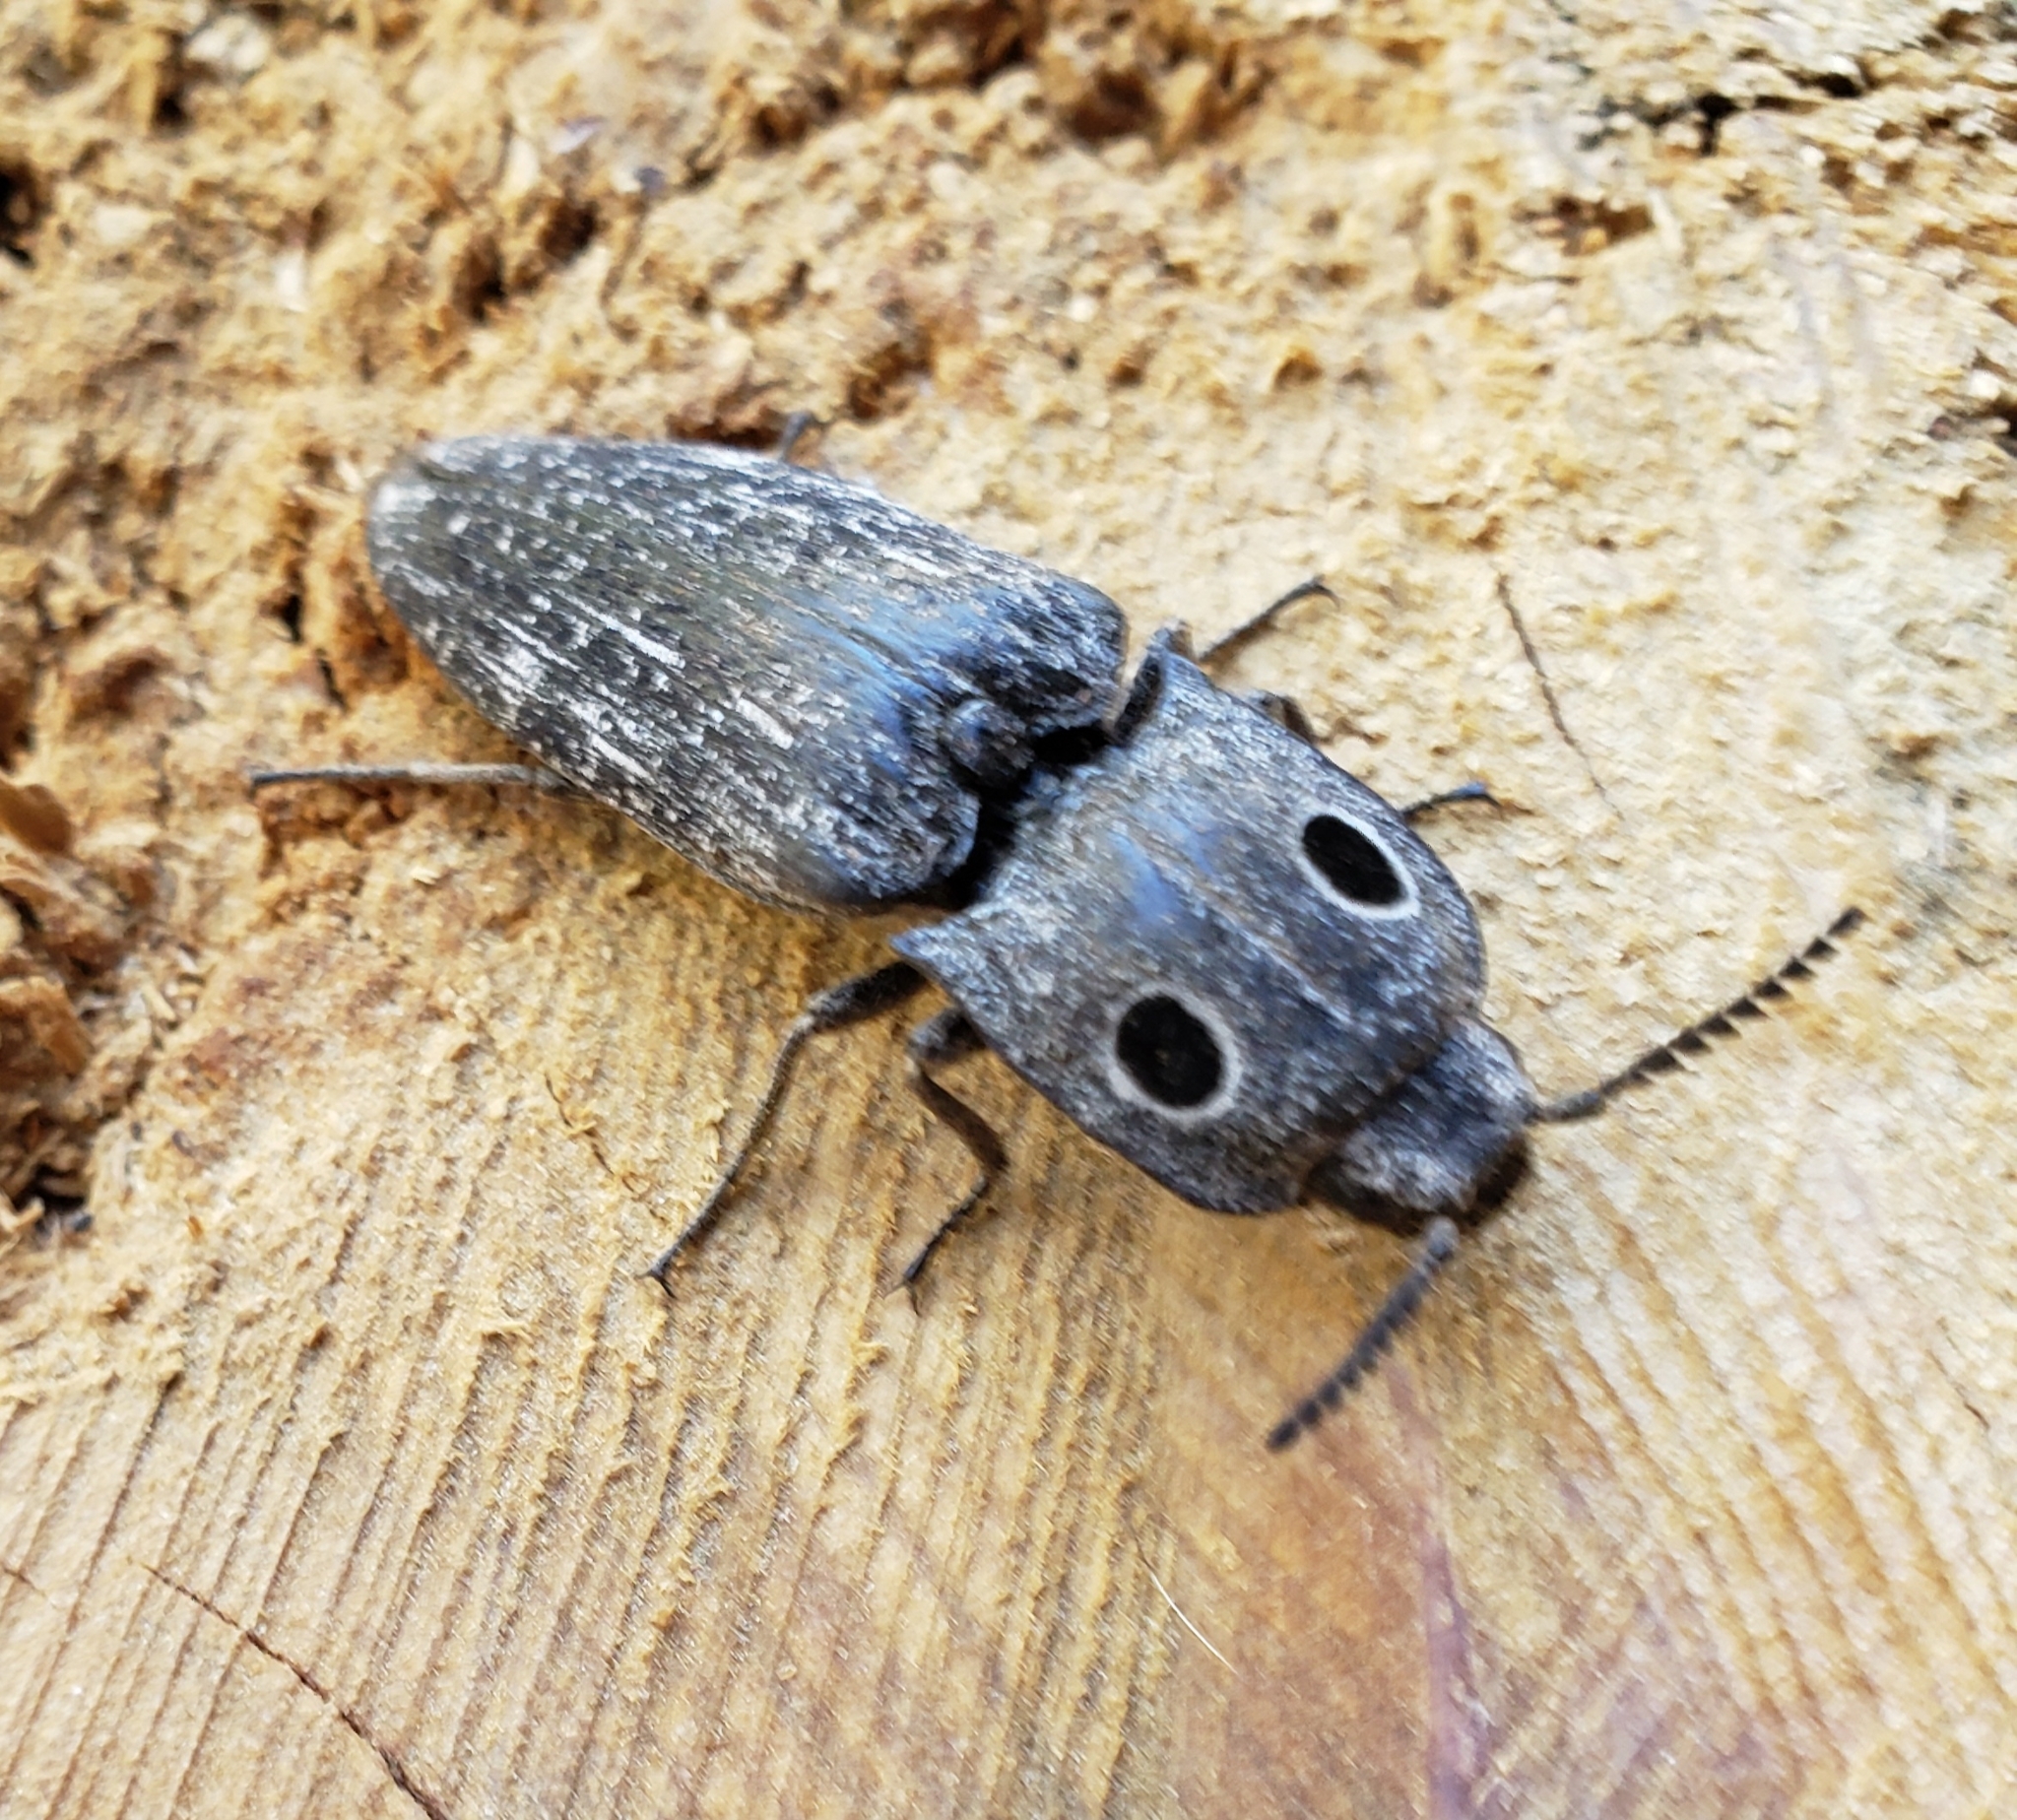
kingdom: Animalia
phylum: Arthropoda
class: Insecta
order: Coleoptera
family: Elateridae
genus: Alaus
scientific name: Alaus melanops
